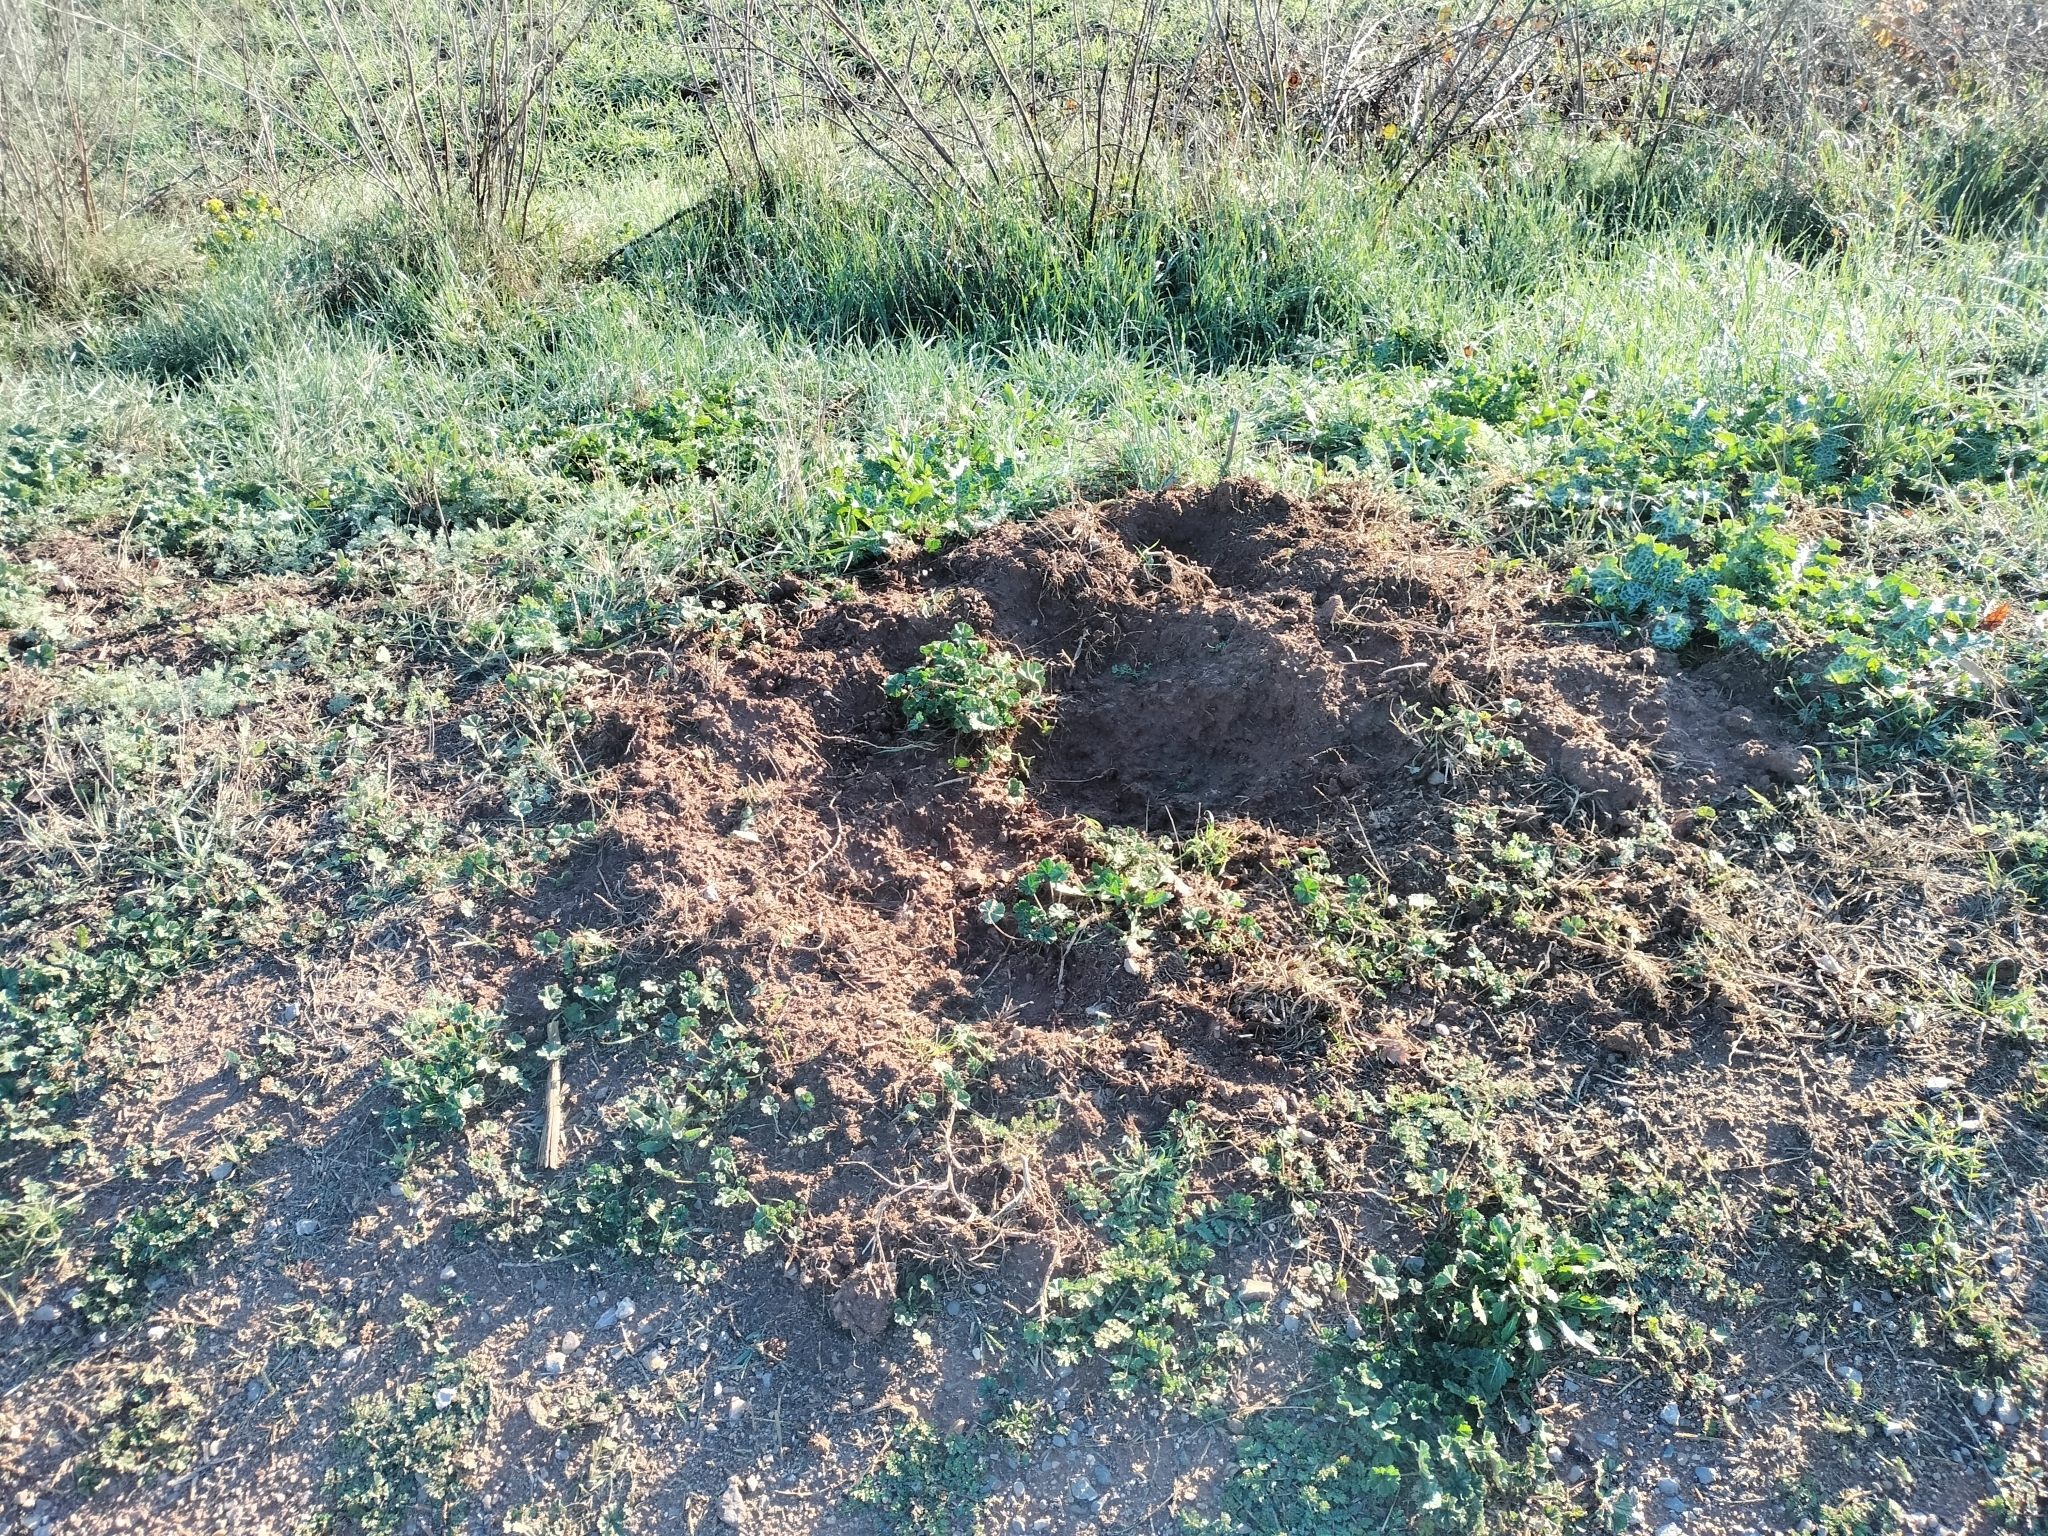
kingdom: Animalia
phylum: Chordata
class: Mammalia
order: Artiodactyla
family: Suidae
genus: Sus
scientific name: Sus scrofa
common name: Wild boar
